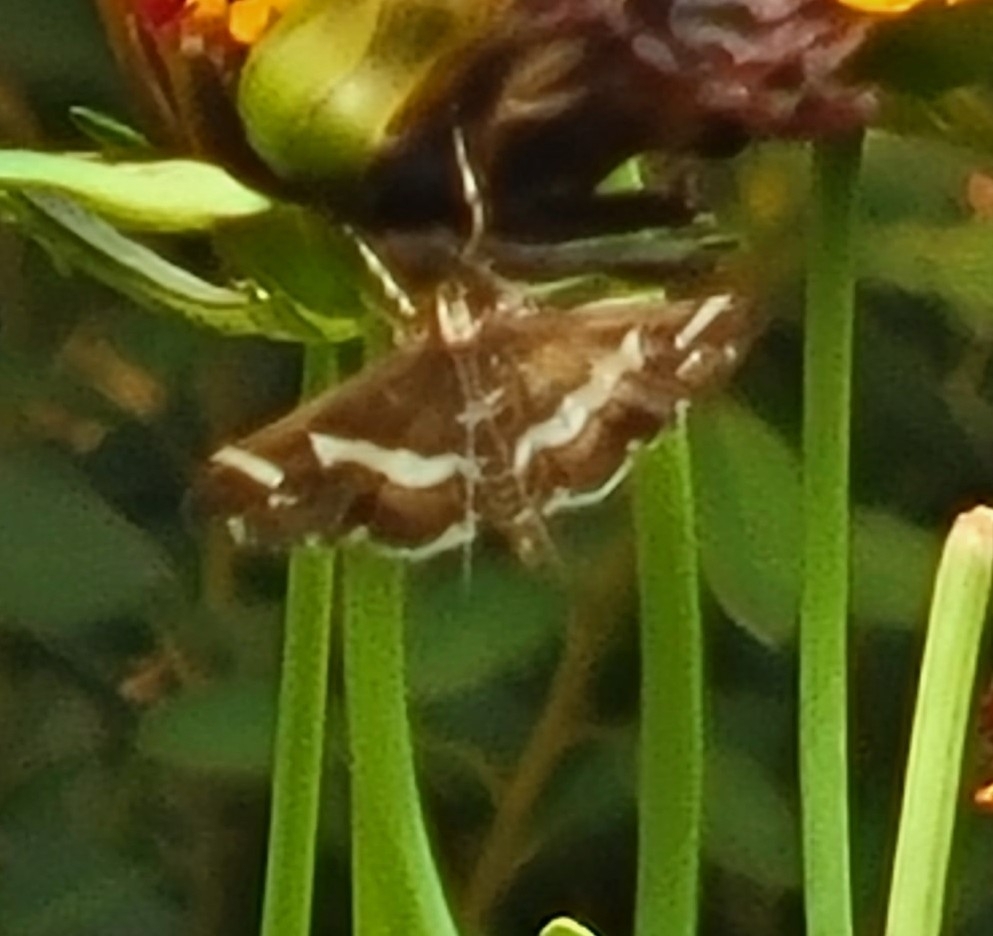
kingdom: Animalia
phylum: Arthropoda
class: Insecta
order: Lepidoptera
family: Crambidae
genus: Spoladea
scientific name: Spoladea recurvalis
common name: Beet webworm moth
